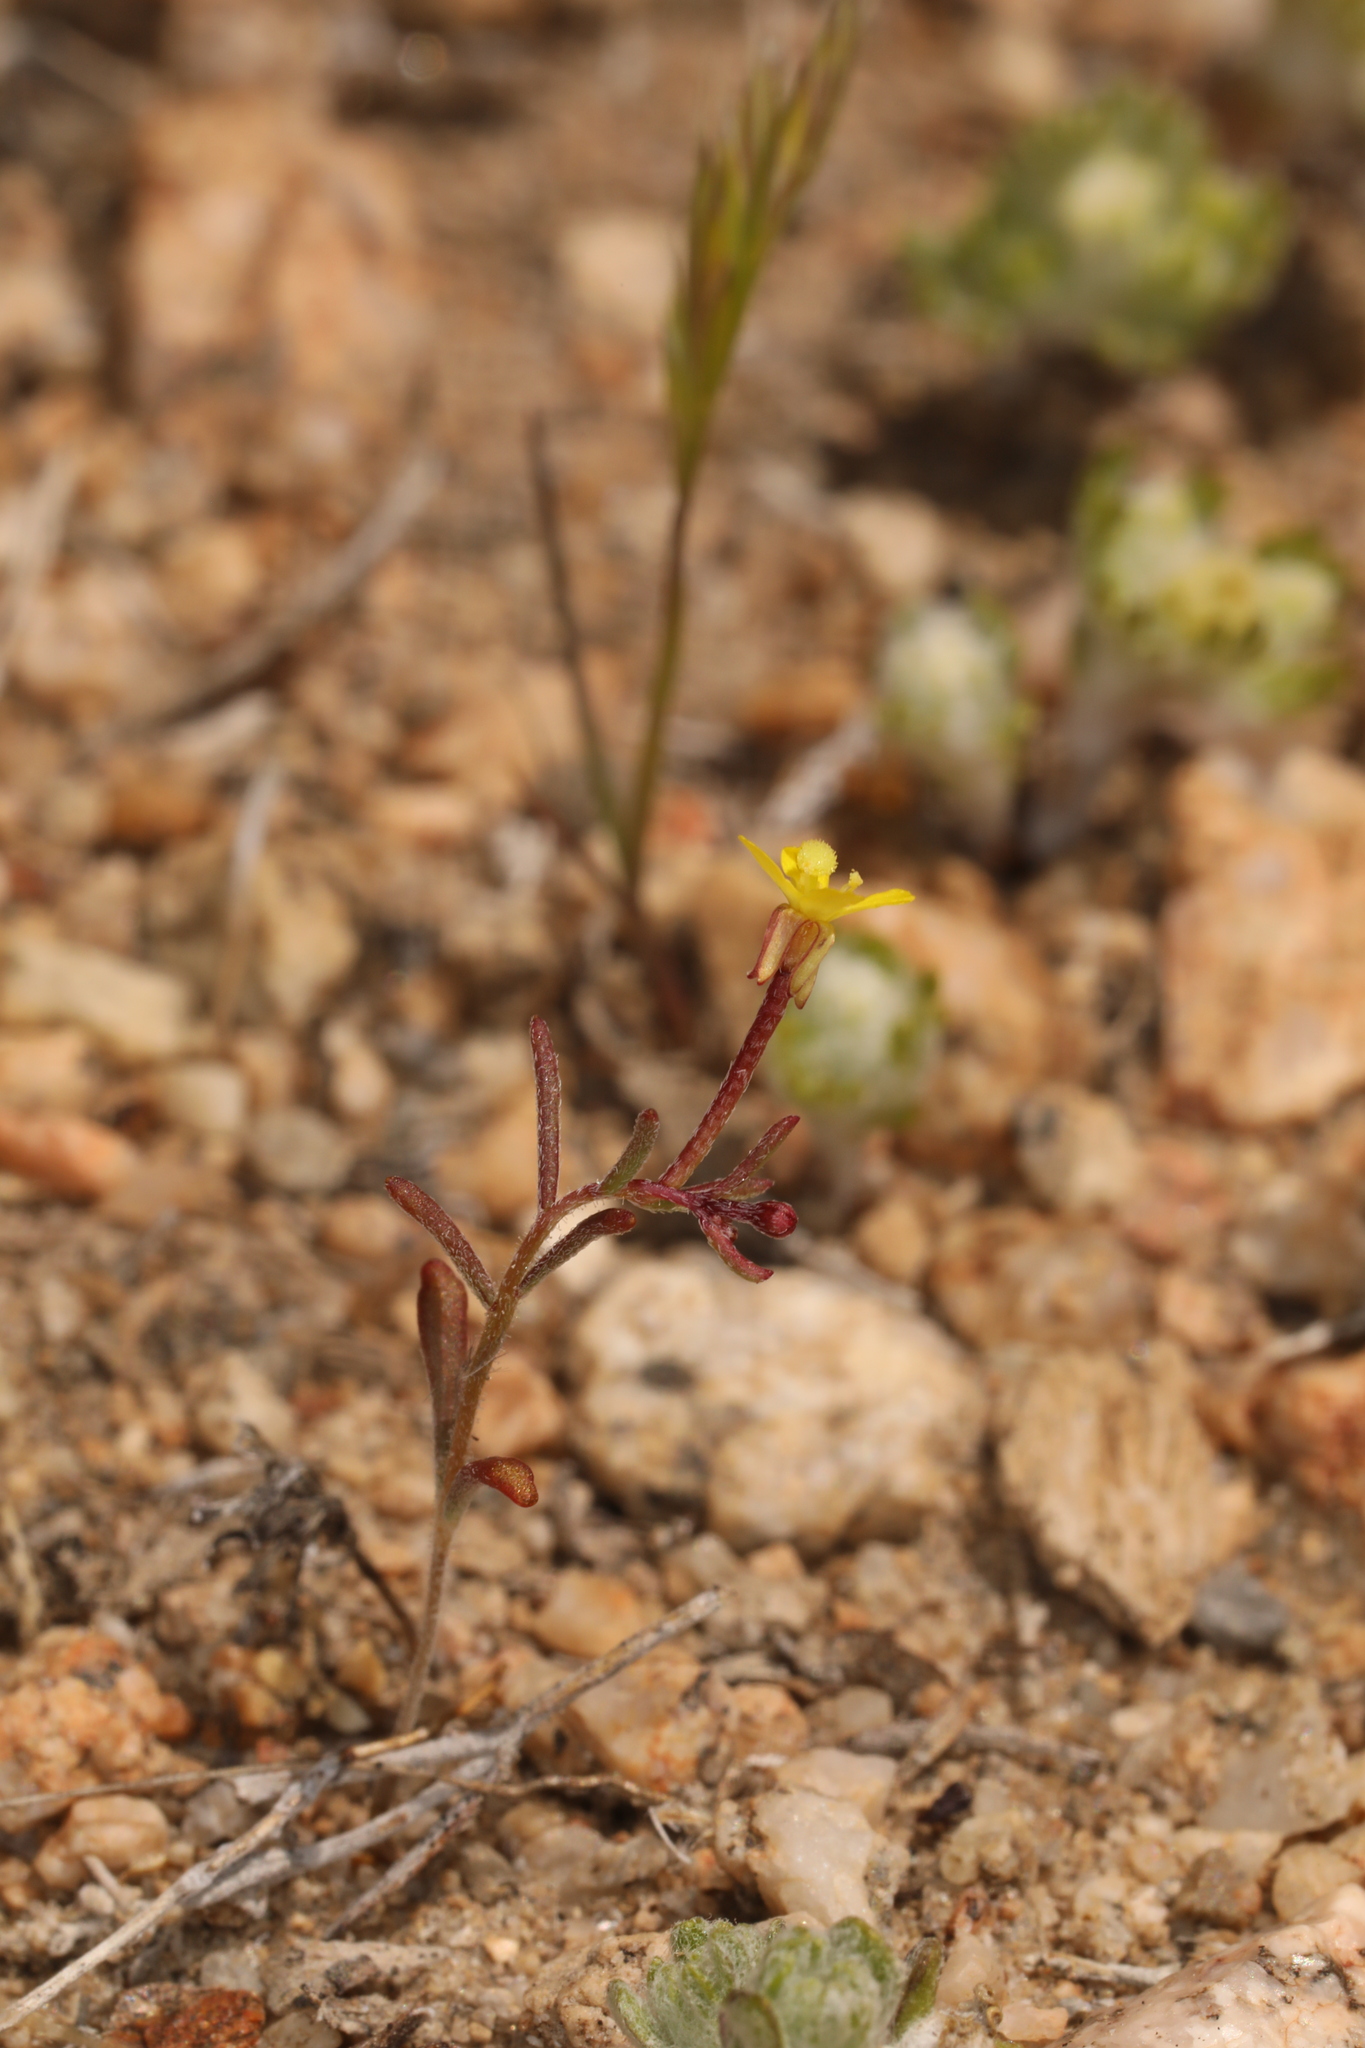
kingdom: Plantae
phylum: Tracheophyta
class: Magnoliopsida
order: Myrtales
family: Onagraceae
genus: Camissonia
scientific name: Camissonia pusilla
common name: Obscure camissonia
